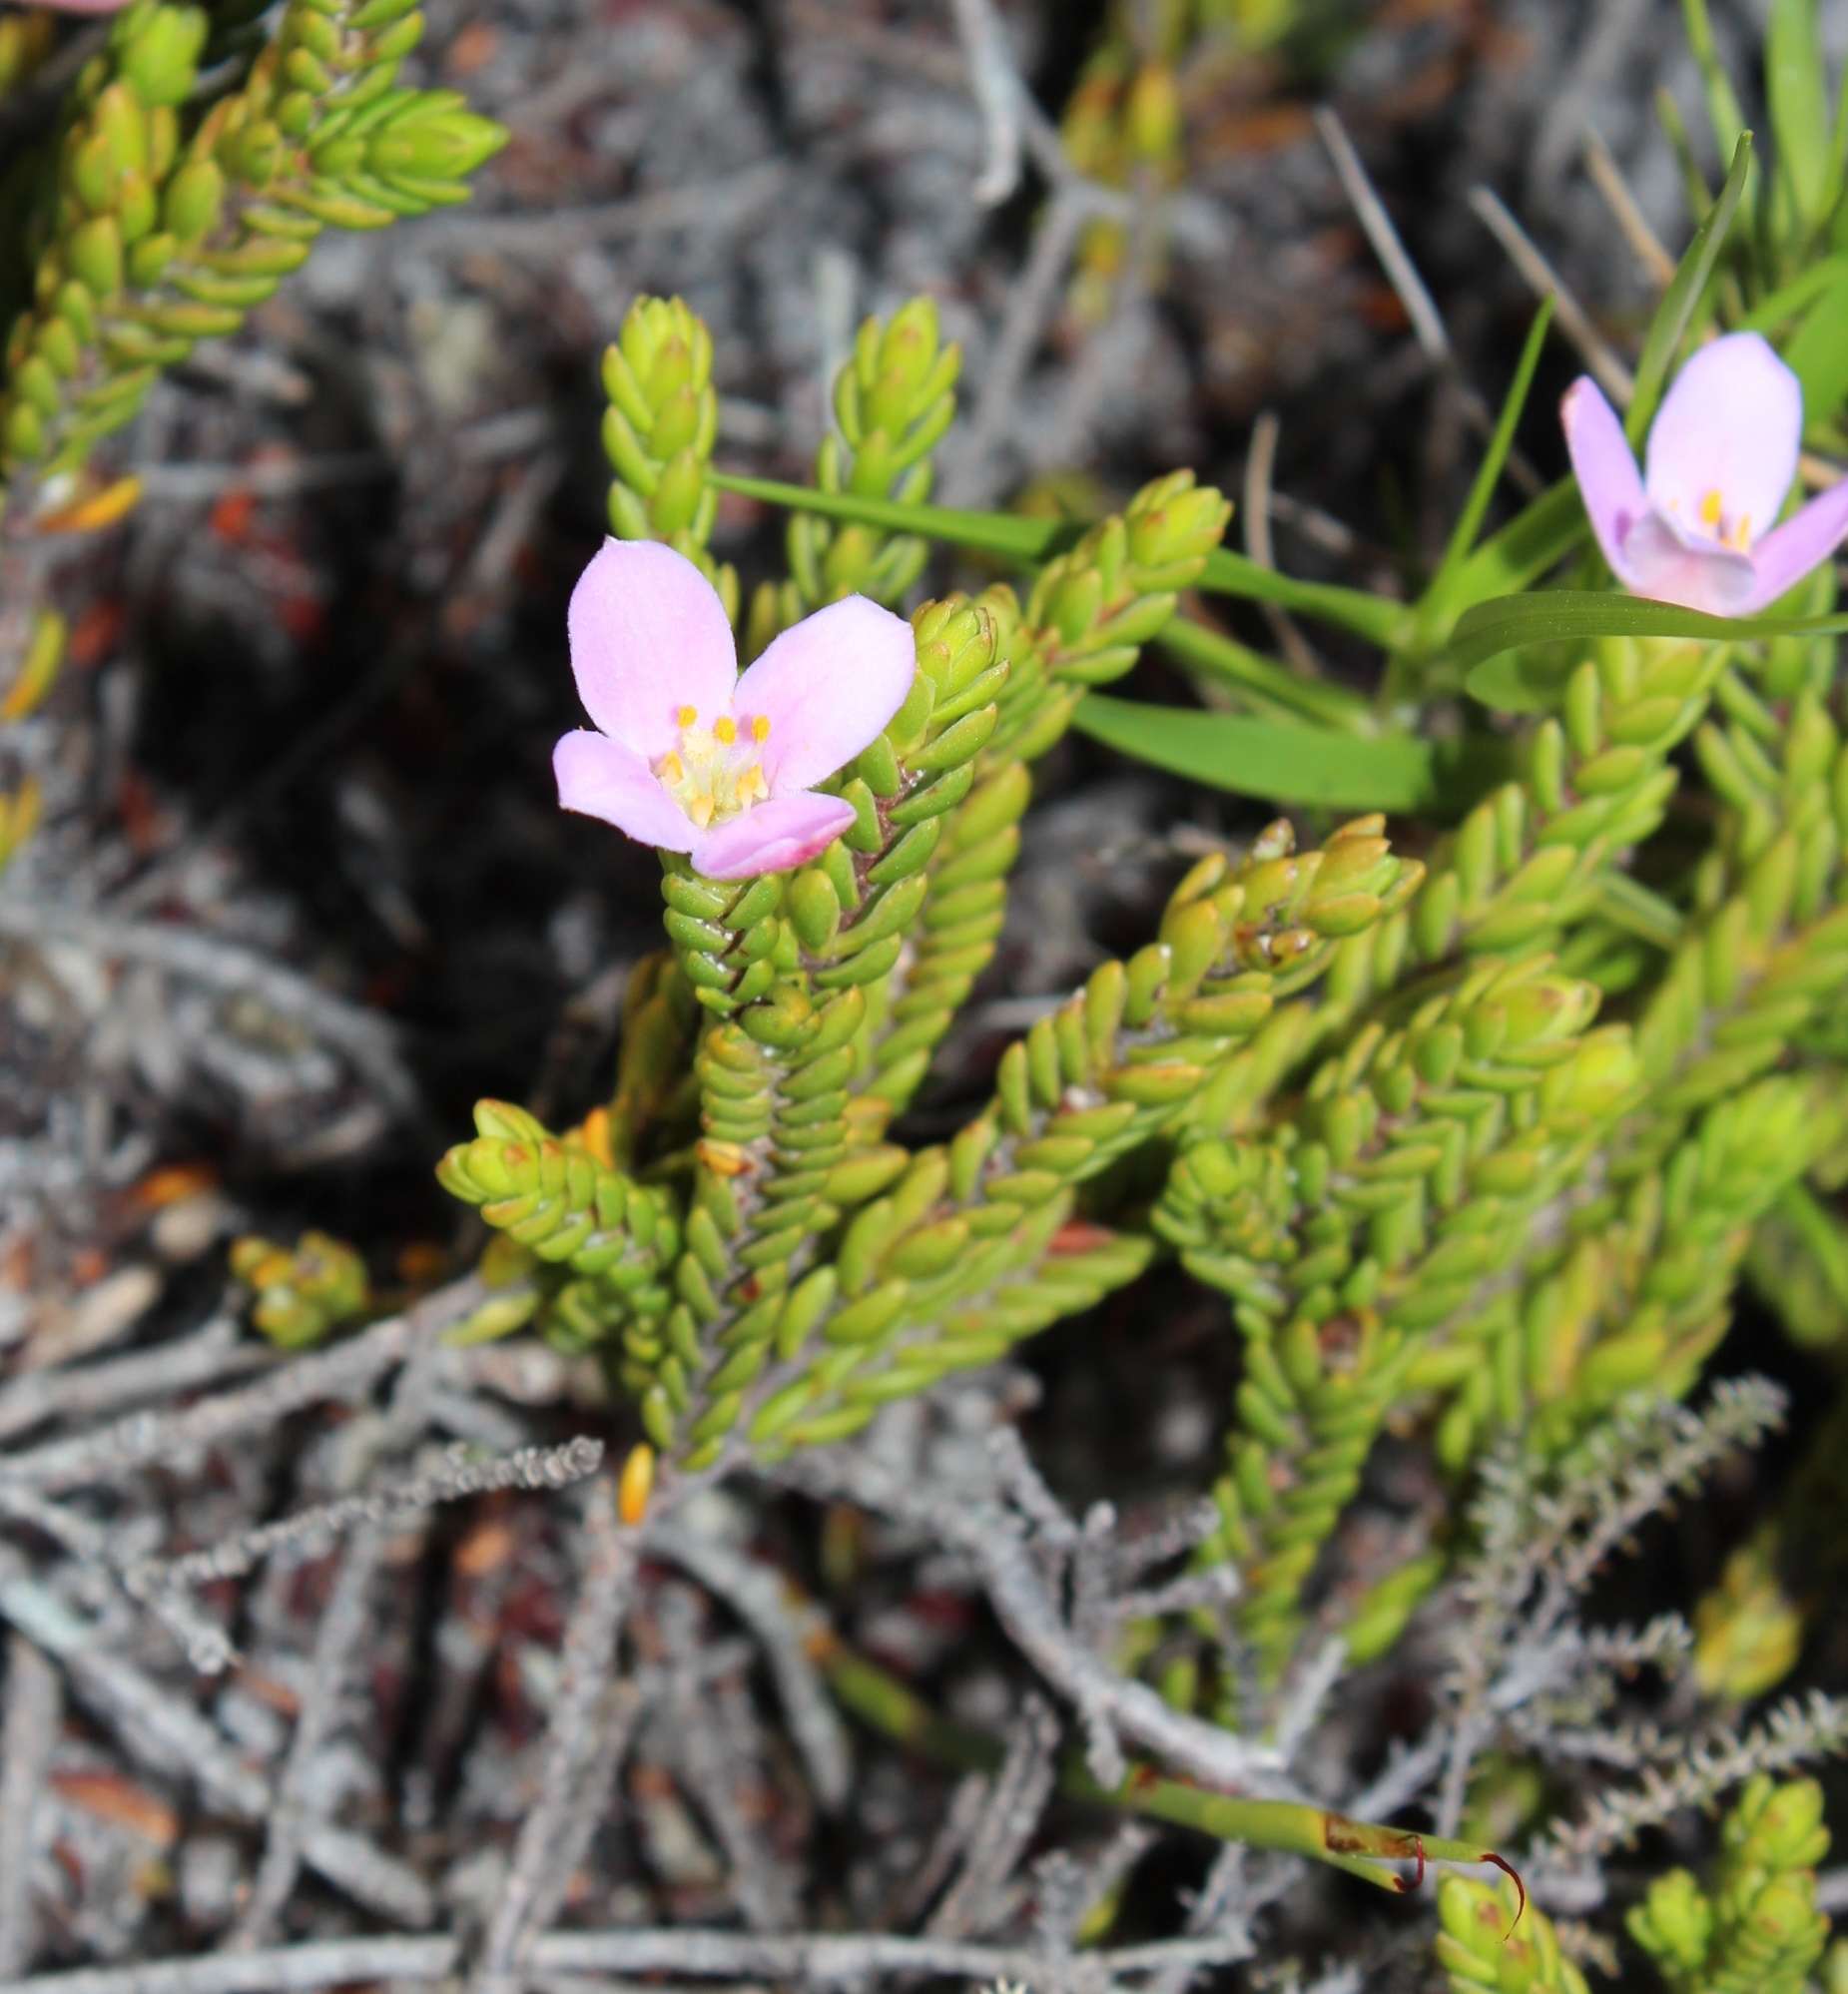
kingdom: Plantae
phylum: Tracheophyta
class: Magnoliopsida
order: Malvales
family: Thymelaeaceae
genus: Lachnaea
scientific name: Lachnaea grandiflora
